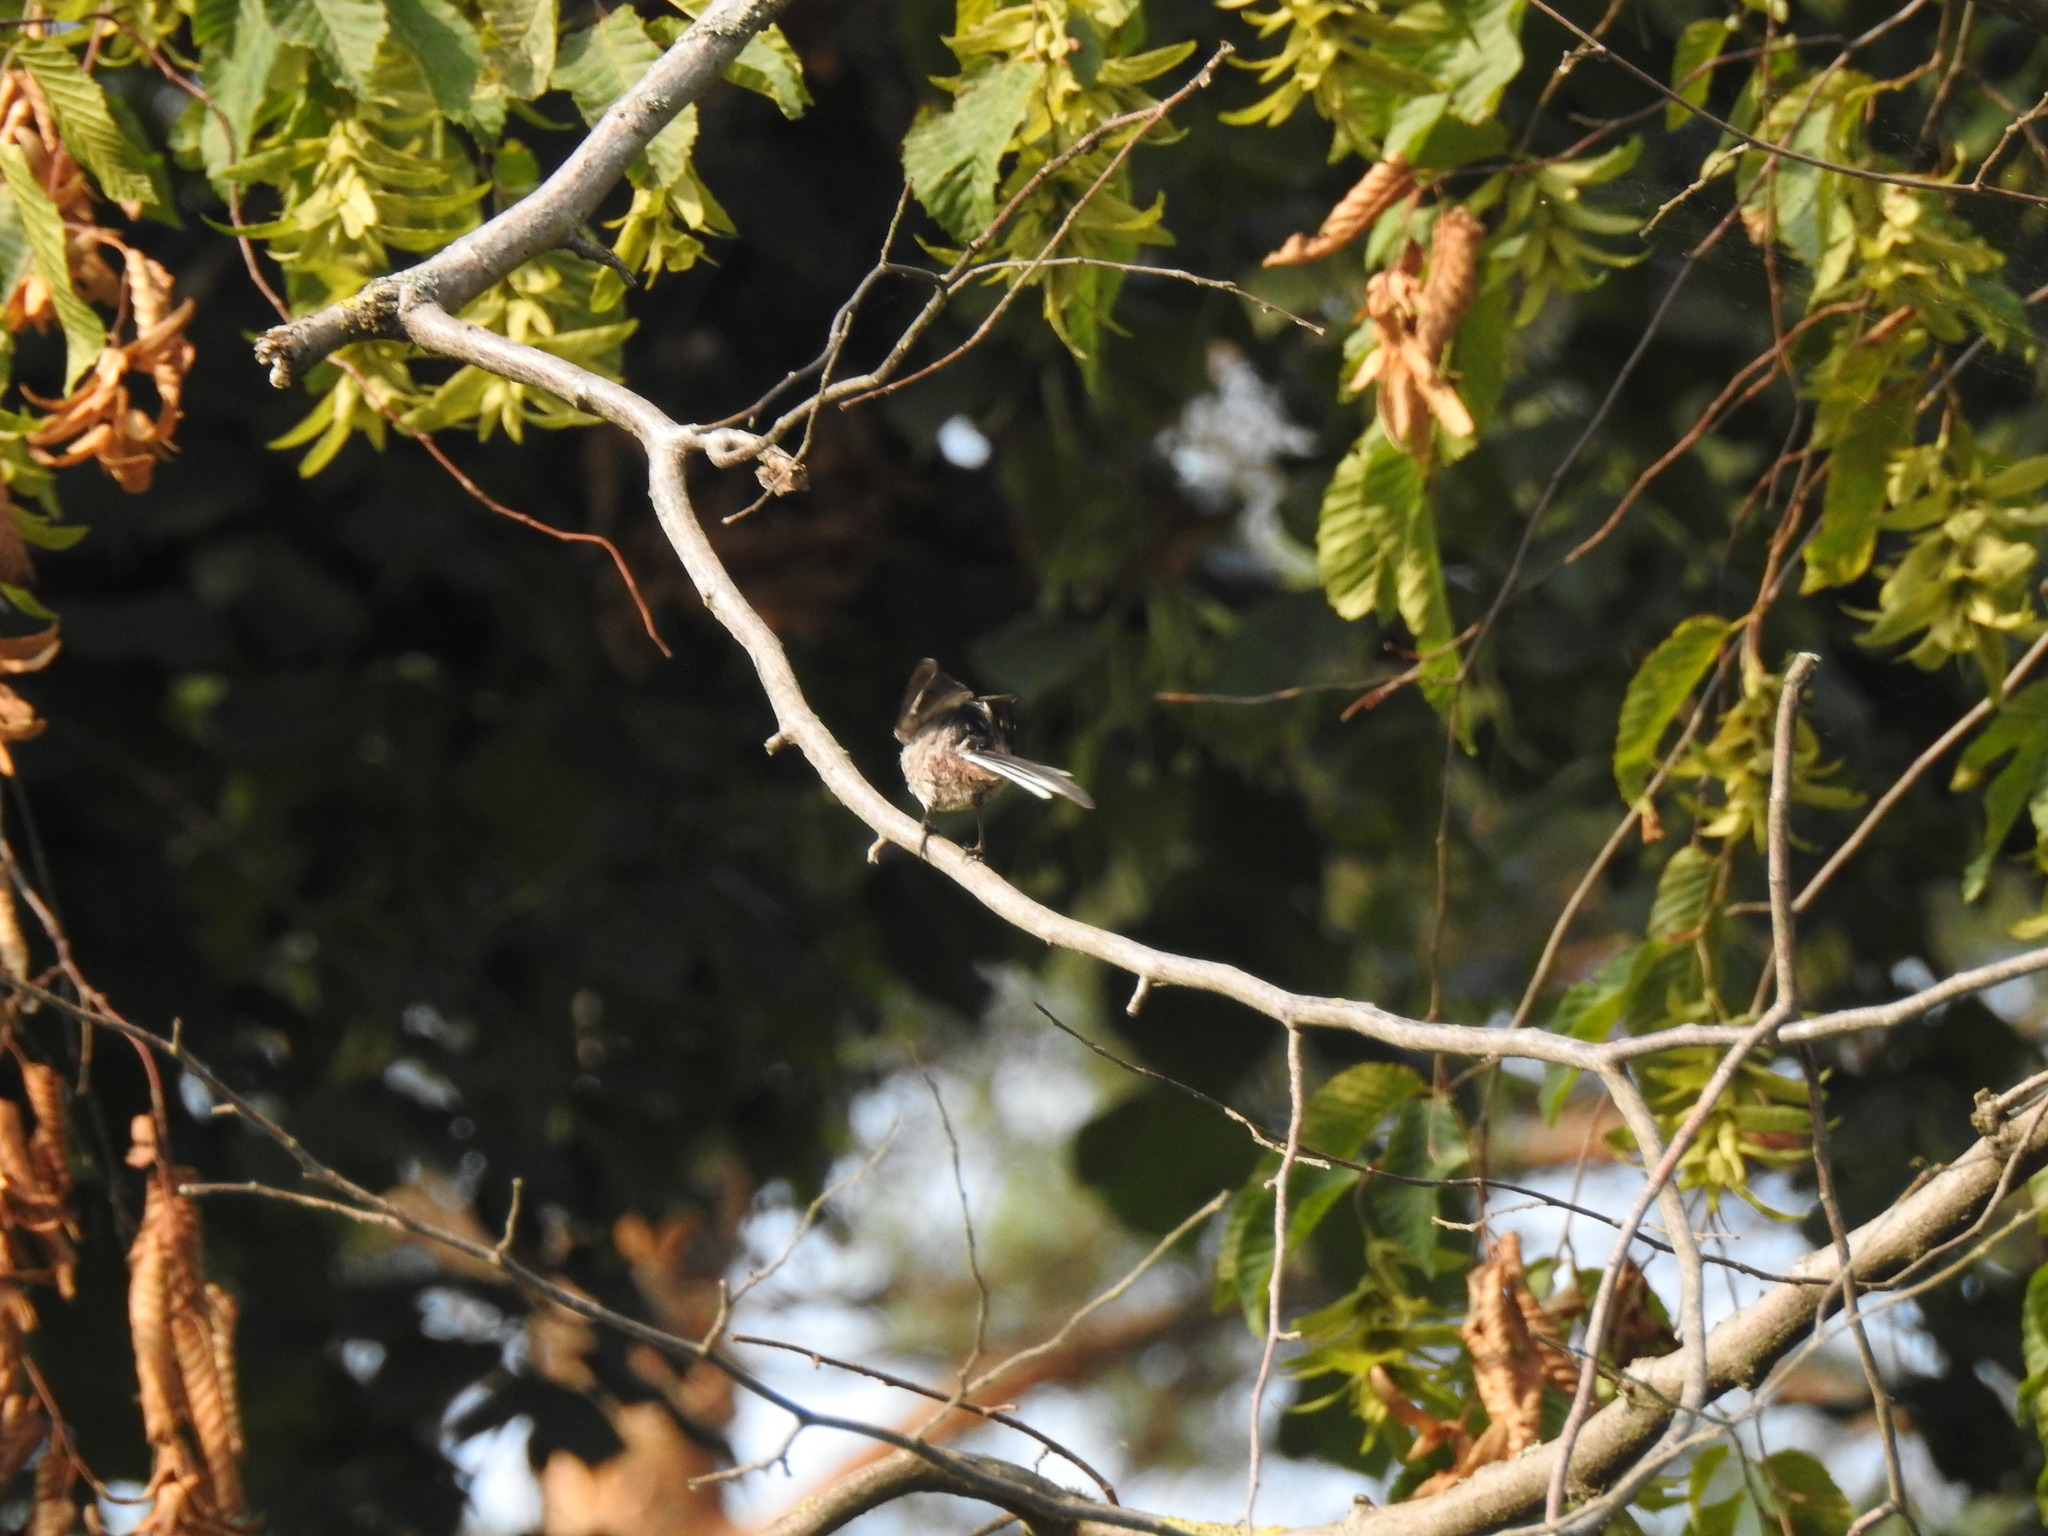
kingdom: Animalia
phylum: Chordata
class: Aves
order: Passeriformes
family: Aegithalidae
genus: Aegithalos
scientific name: Aegithalos caudatus
